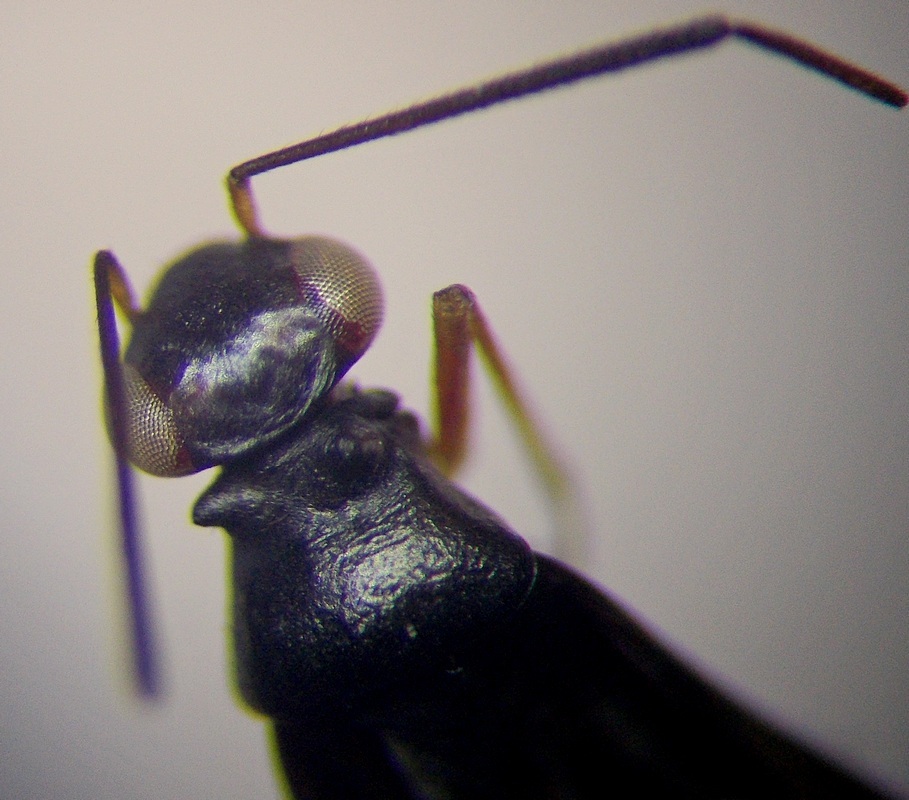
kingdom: Animalia
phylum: Arthropoda
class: Insecta
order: Hemiptera
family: Miridae
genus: Globiceps
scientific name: Globiceps sphaegiformis
